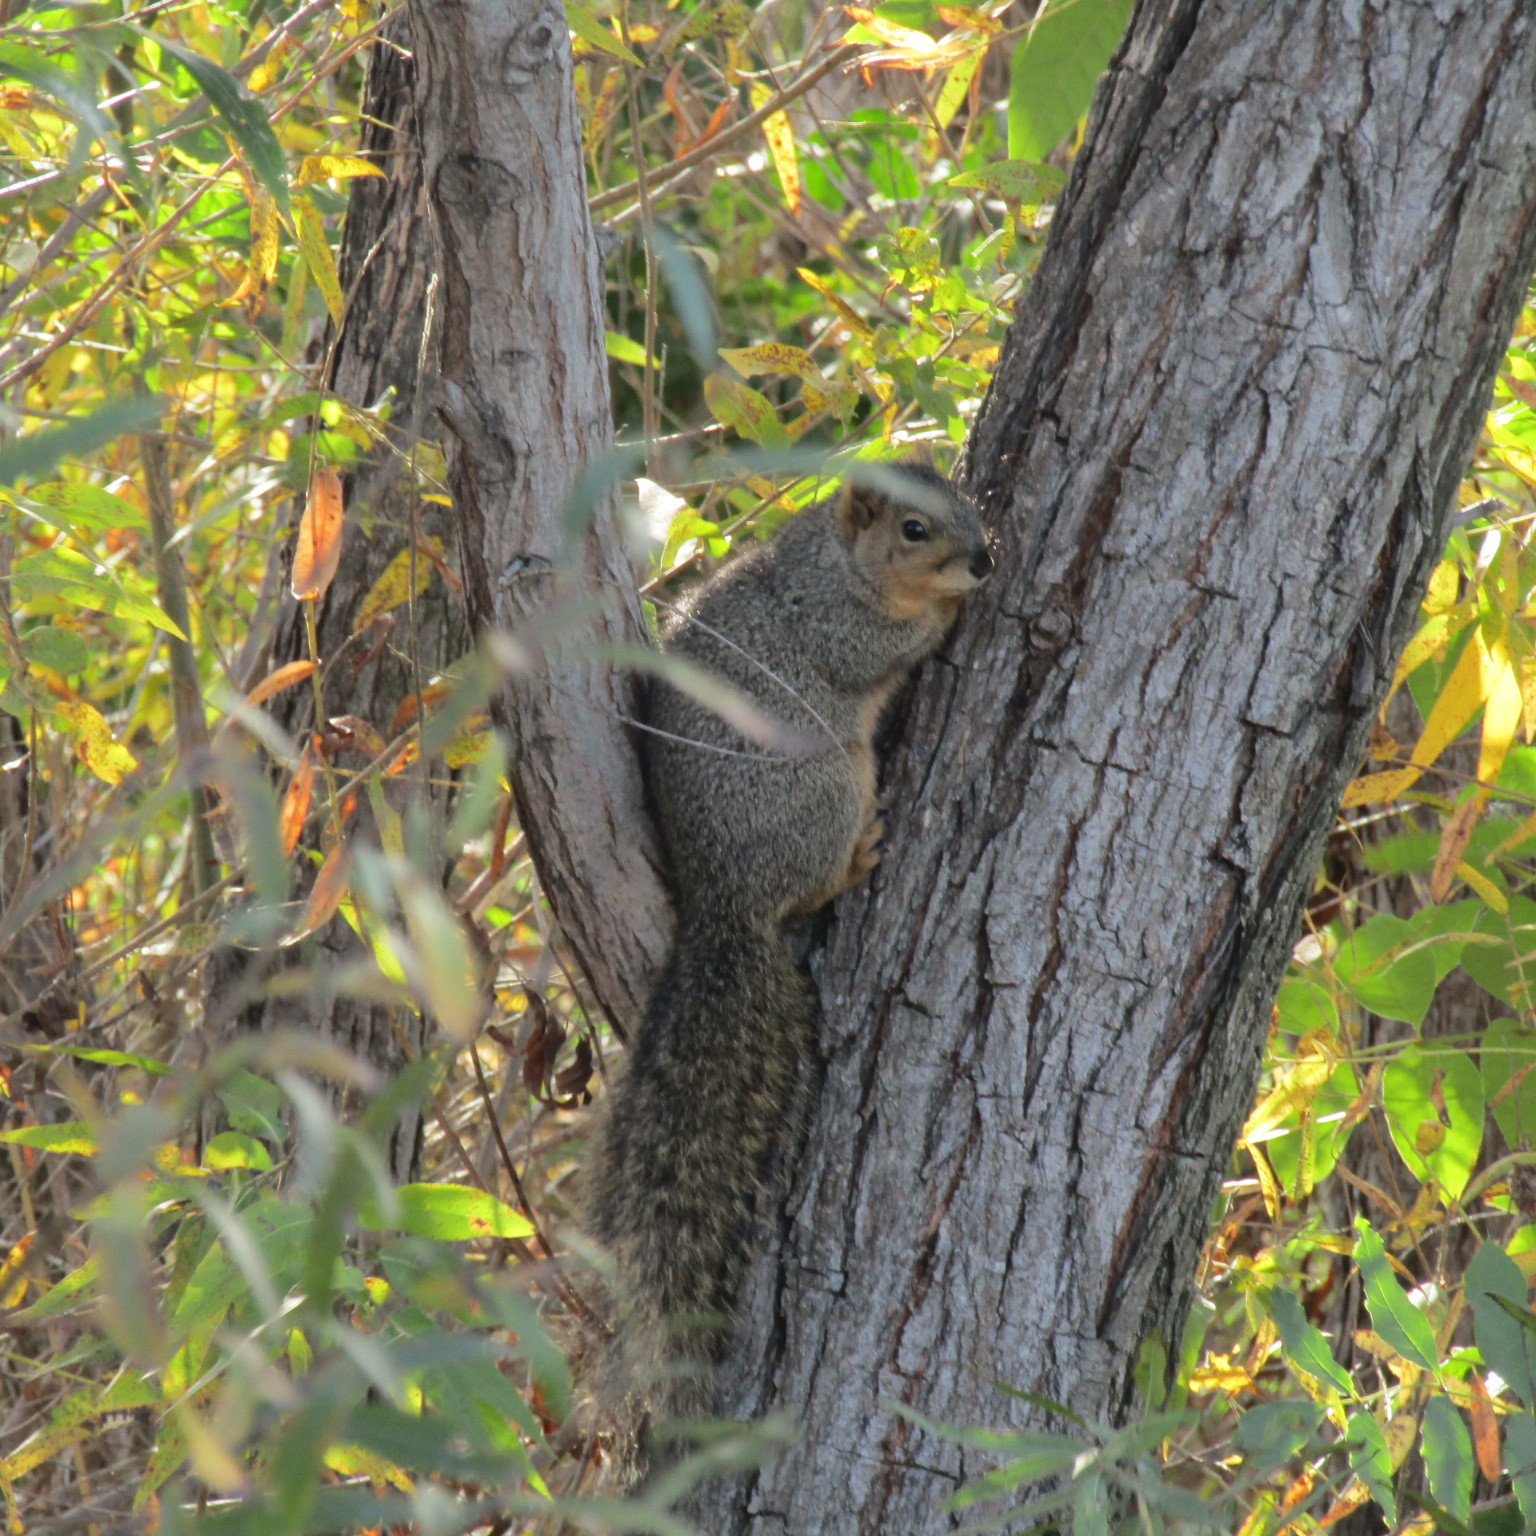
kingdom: Animalia
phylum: Chordata
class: Mammalia
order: Rodentia
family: Sciuridae
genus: Sciurus
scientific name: Sciurus niger
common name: Fox squirrel
